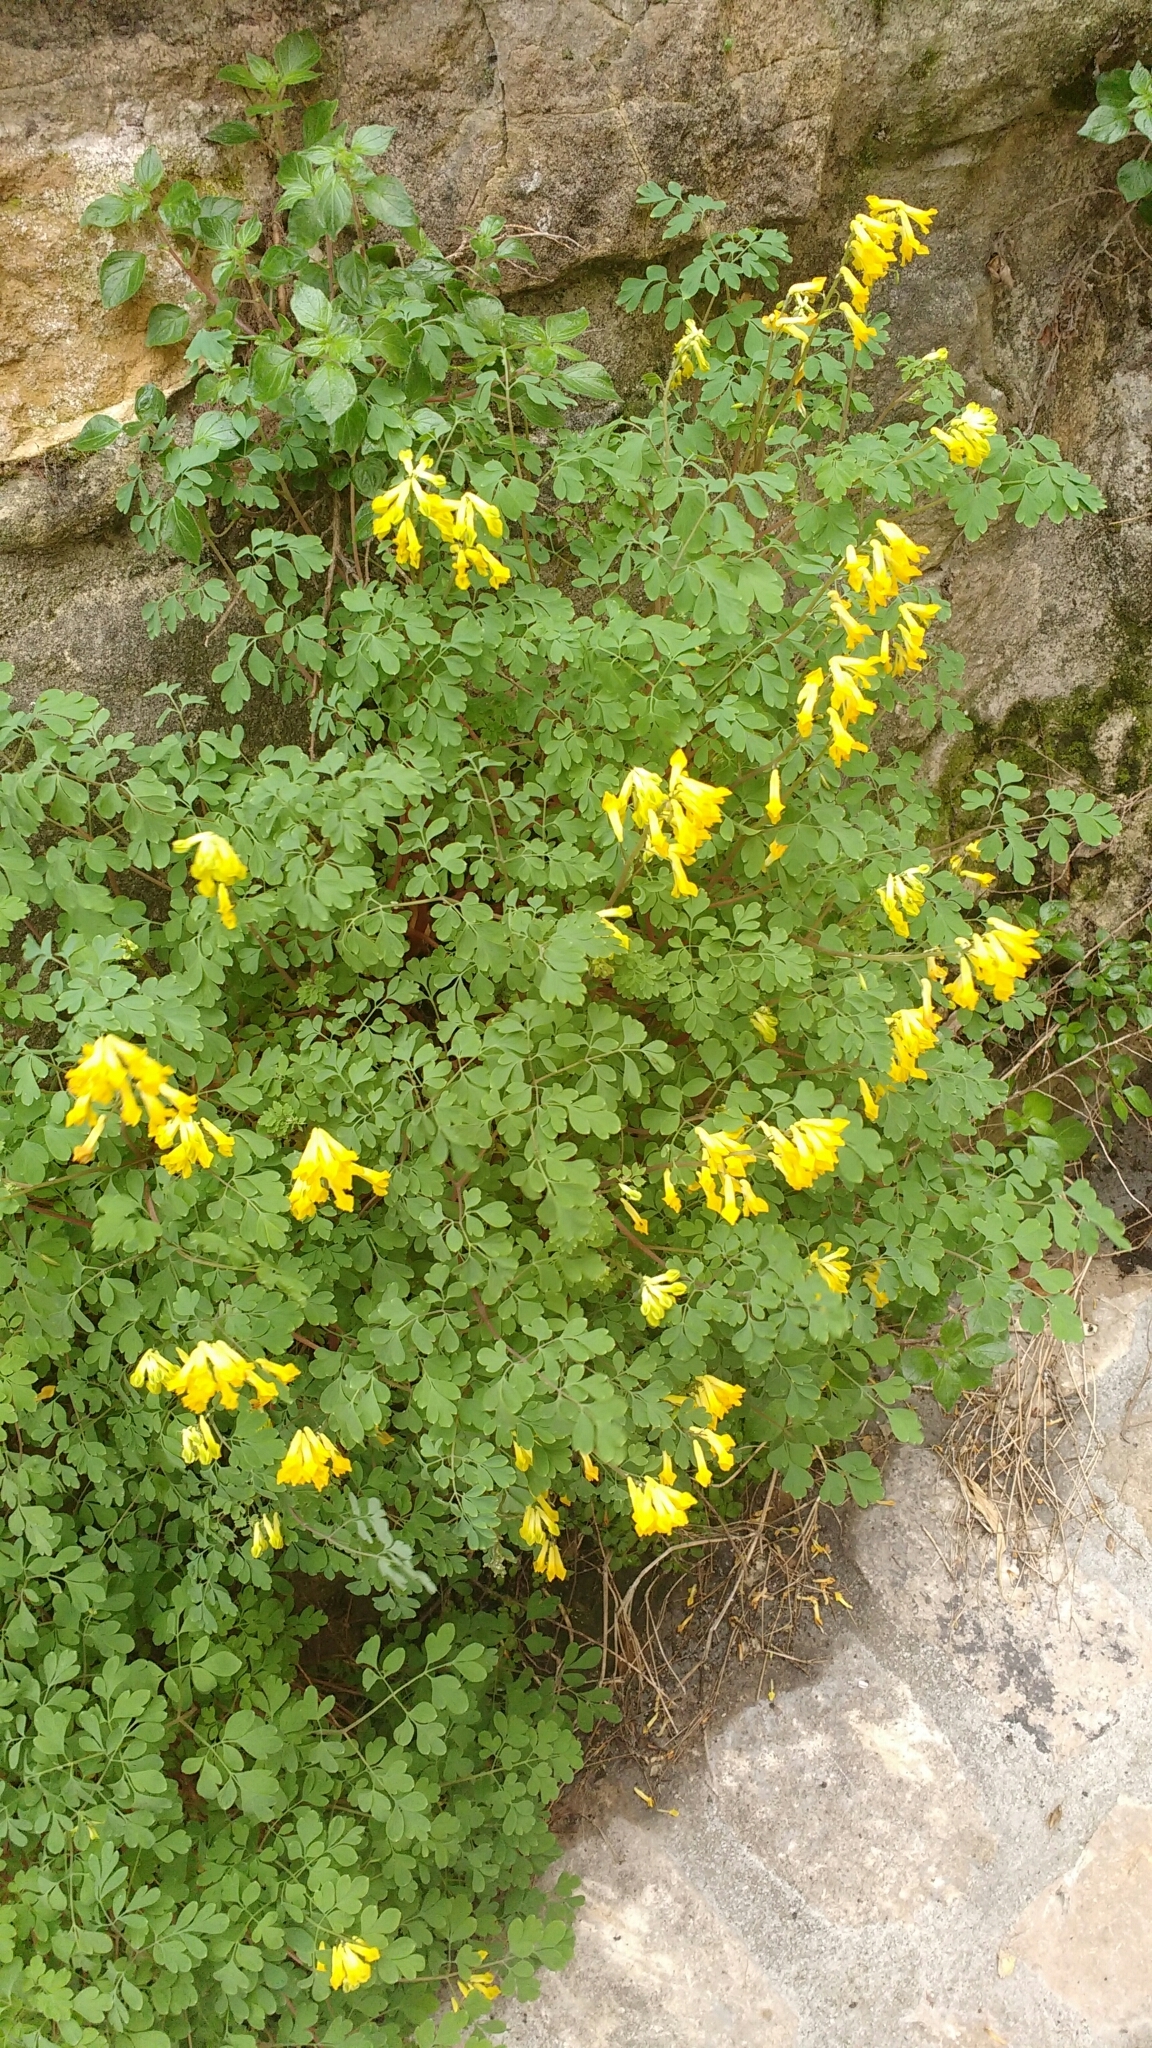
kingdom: Plantae
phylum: Tracheophyta
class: Magnoliopsida
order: Ranunculales
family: Papaveraceae
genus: Pseudofumaria
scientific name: Pseudofumaria lutea
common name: Yellow corydalis
